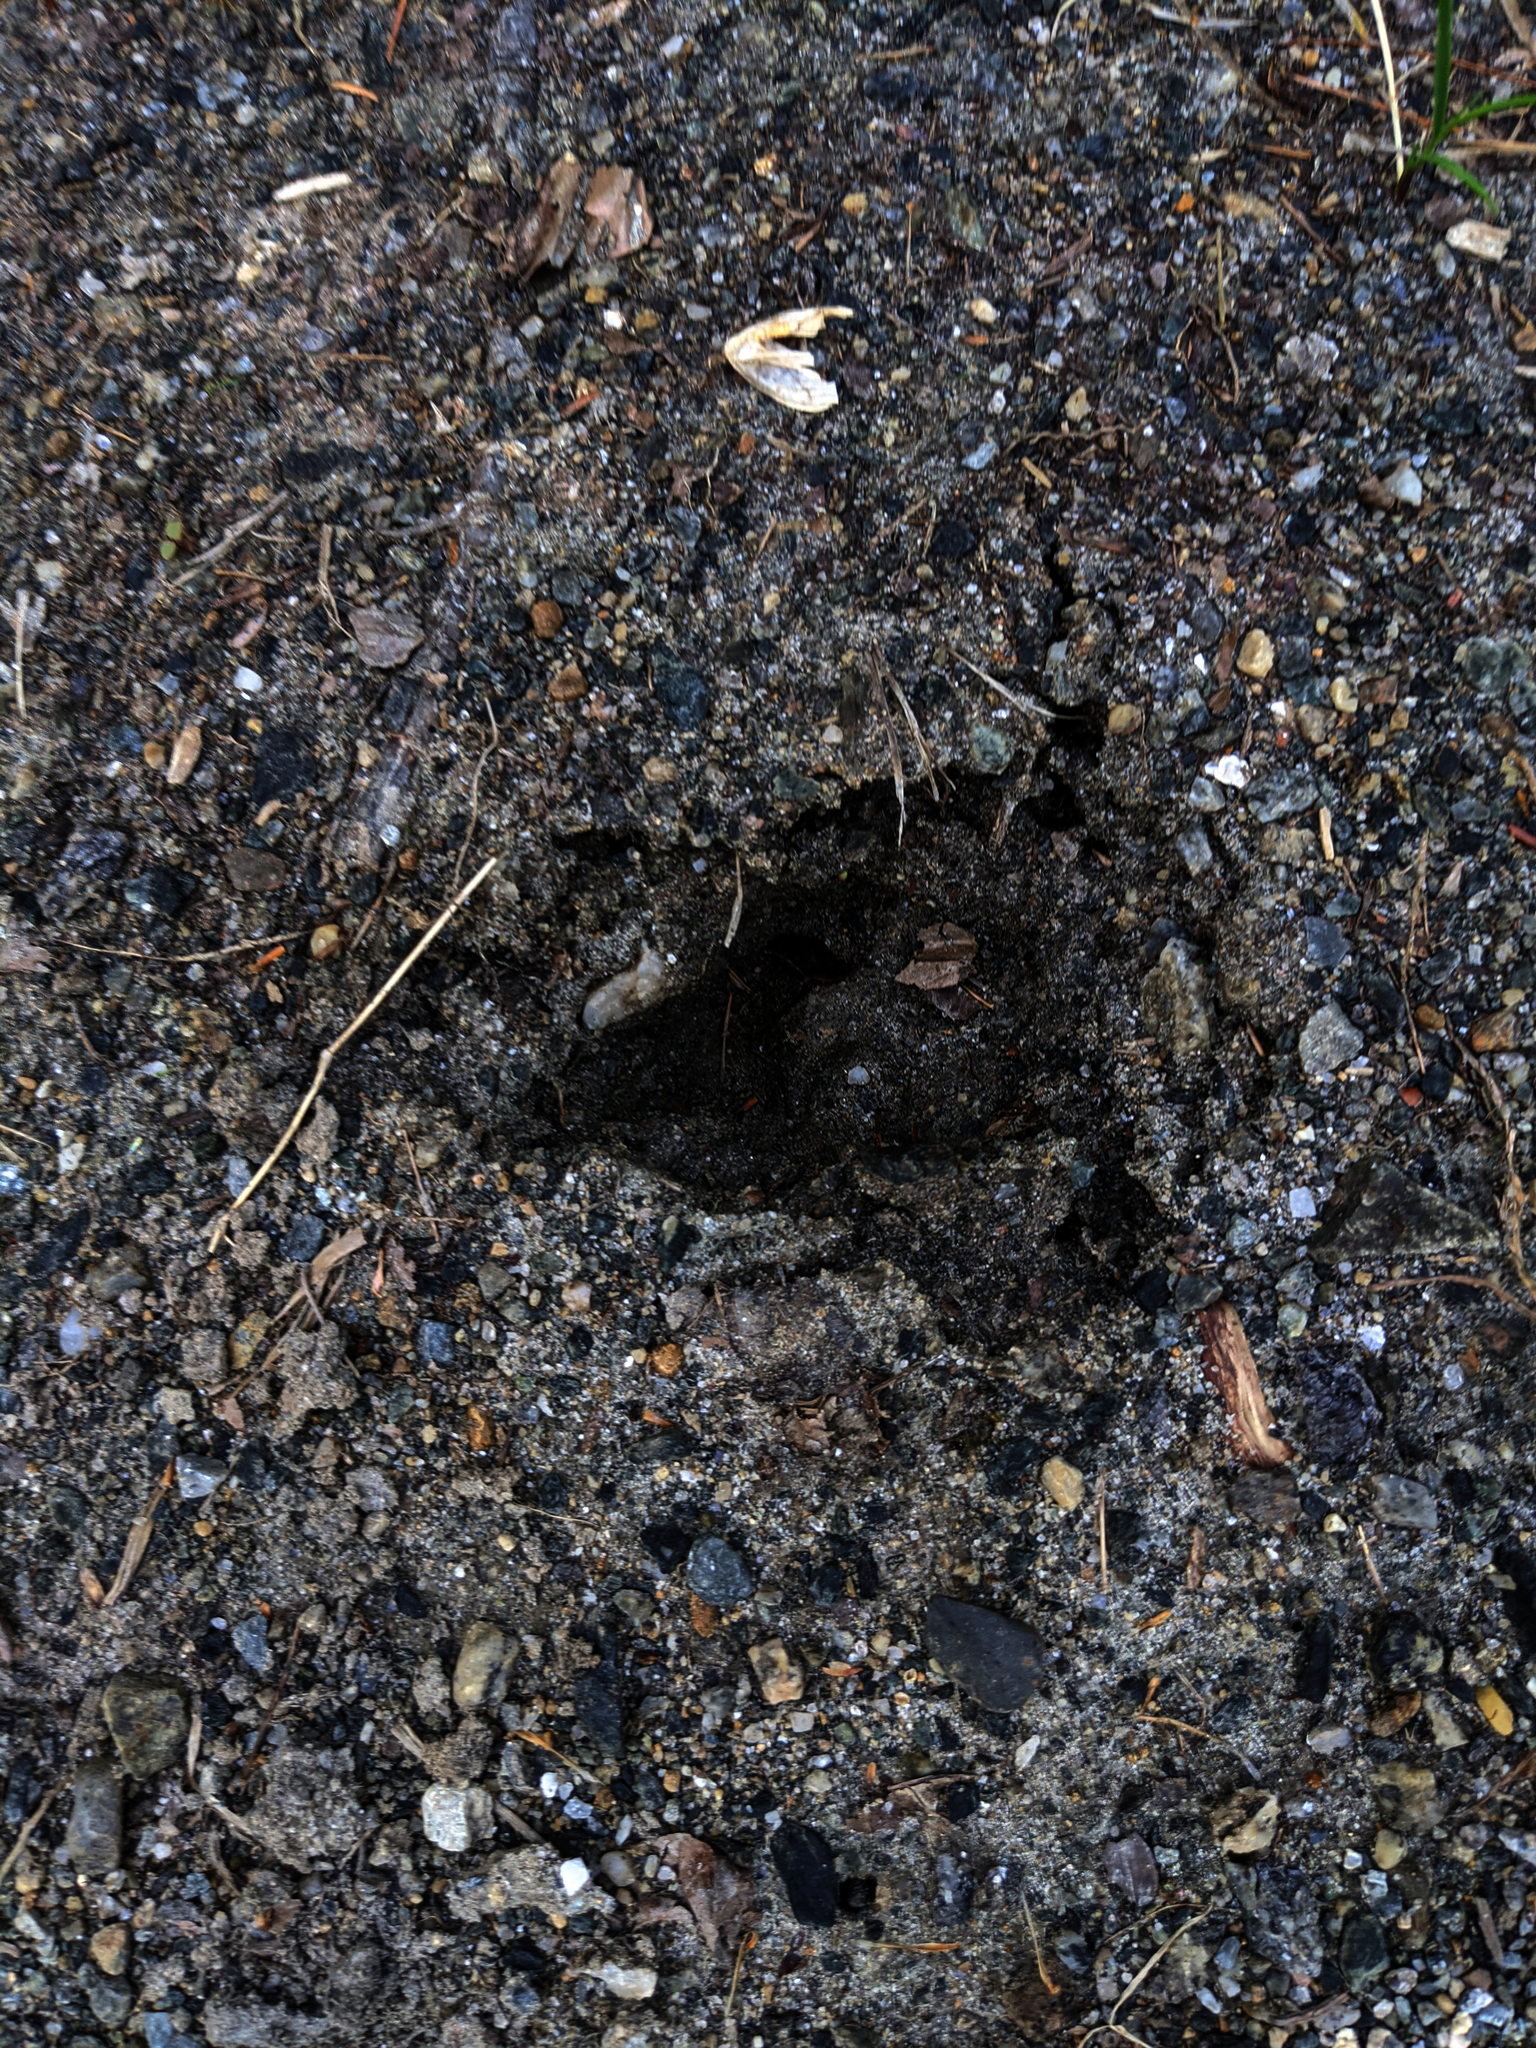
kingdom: Animalia
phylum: Chordata
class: Mammalia
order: Artiodactyla
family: Cervidae
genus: Odocoileus
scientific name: Odocoileus virginianus
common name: White-tailed deer
